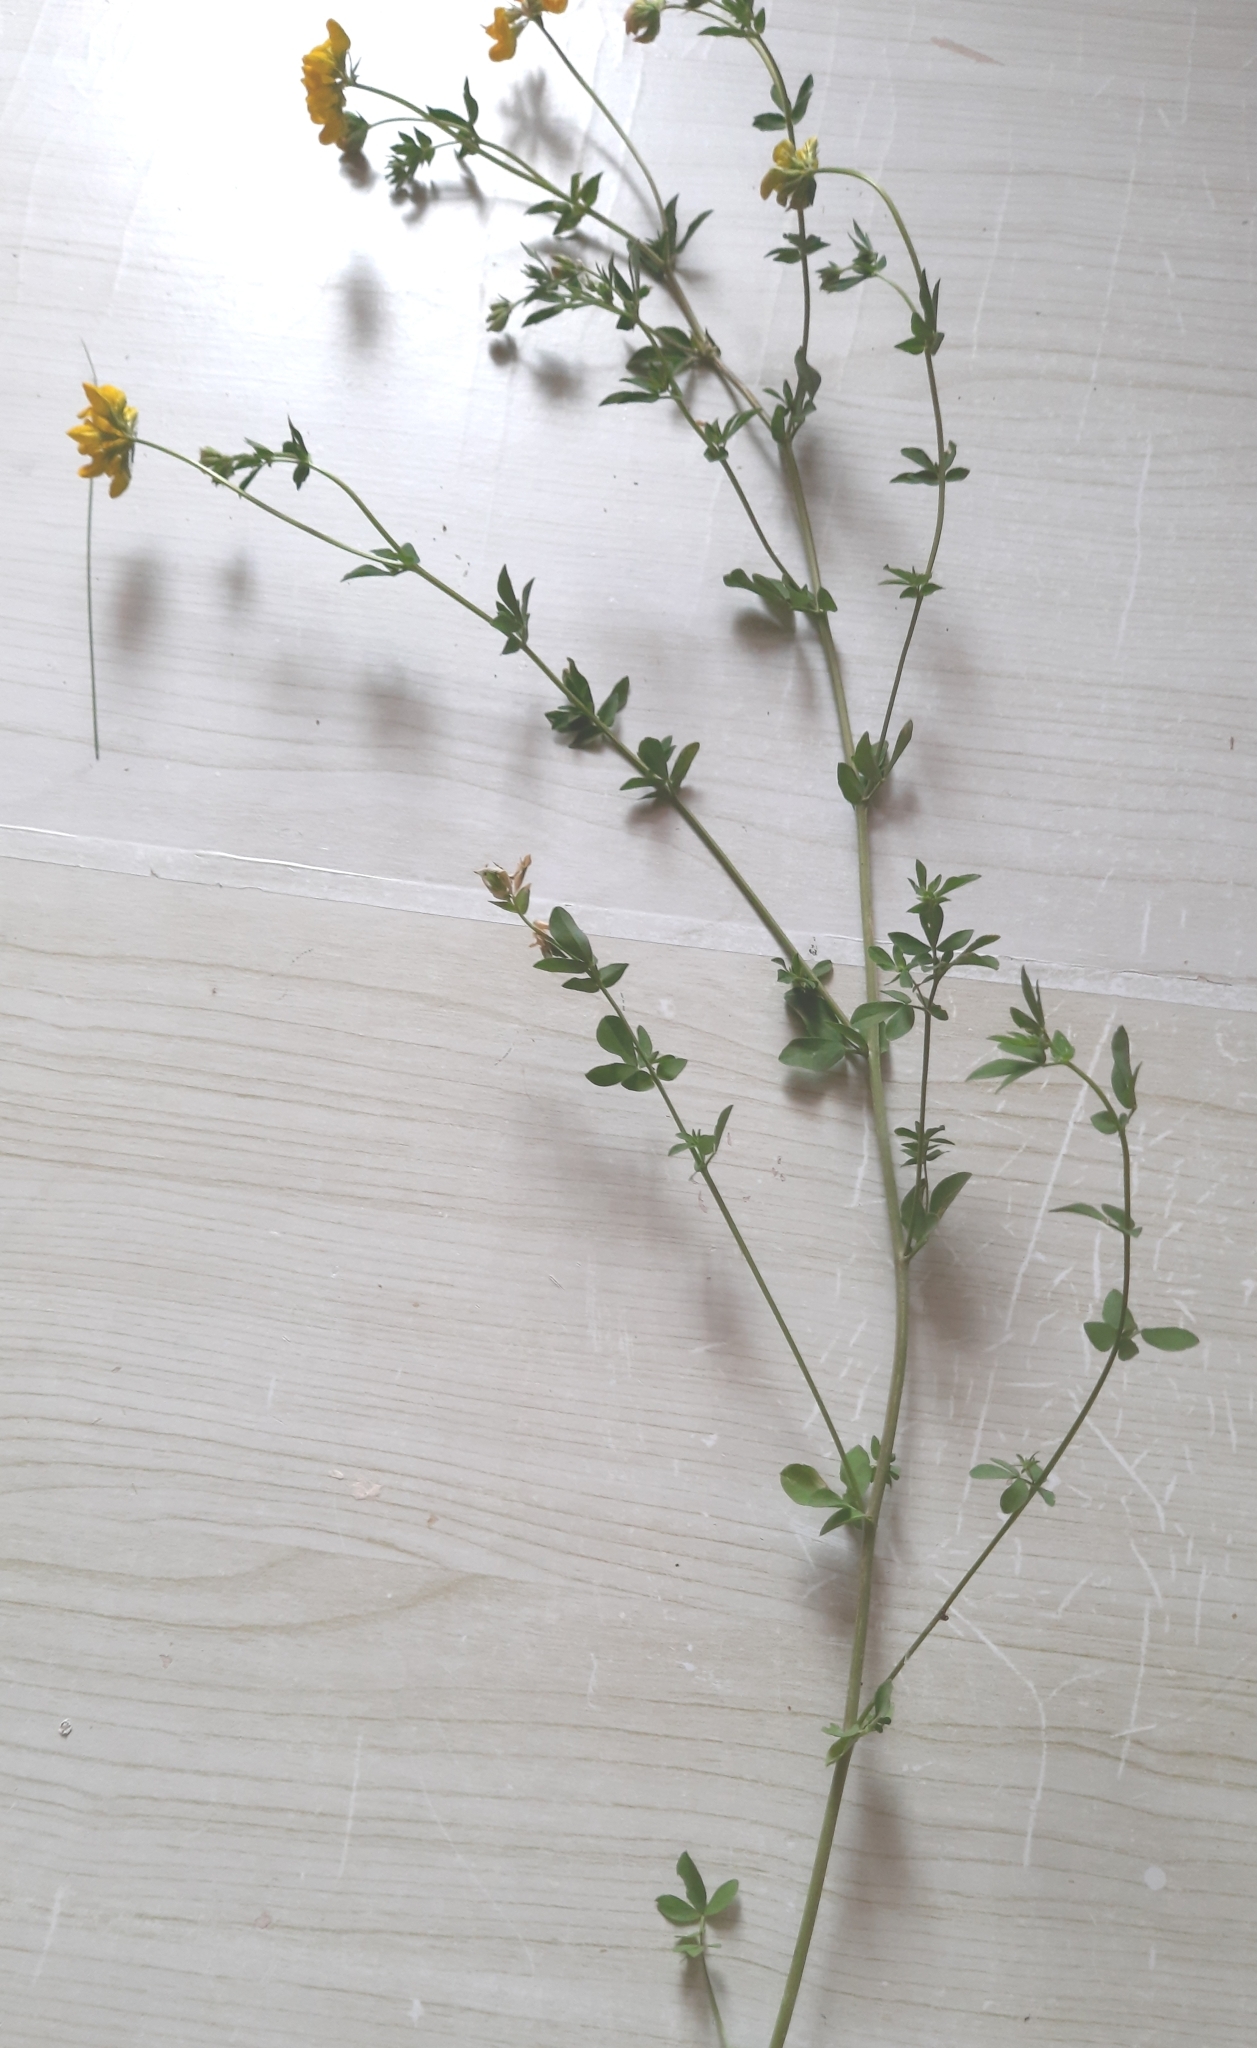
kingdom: Plantae
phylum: Tracheophyta
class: Magnoliopsida
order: Fabales
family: Fabaceae
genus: Lotus
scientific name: Lotus corniculatus
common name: Common bird's-foot-trefoil
